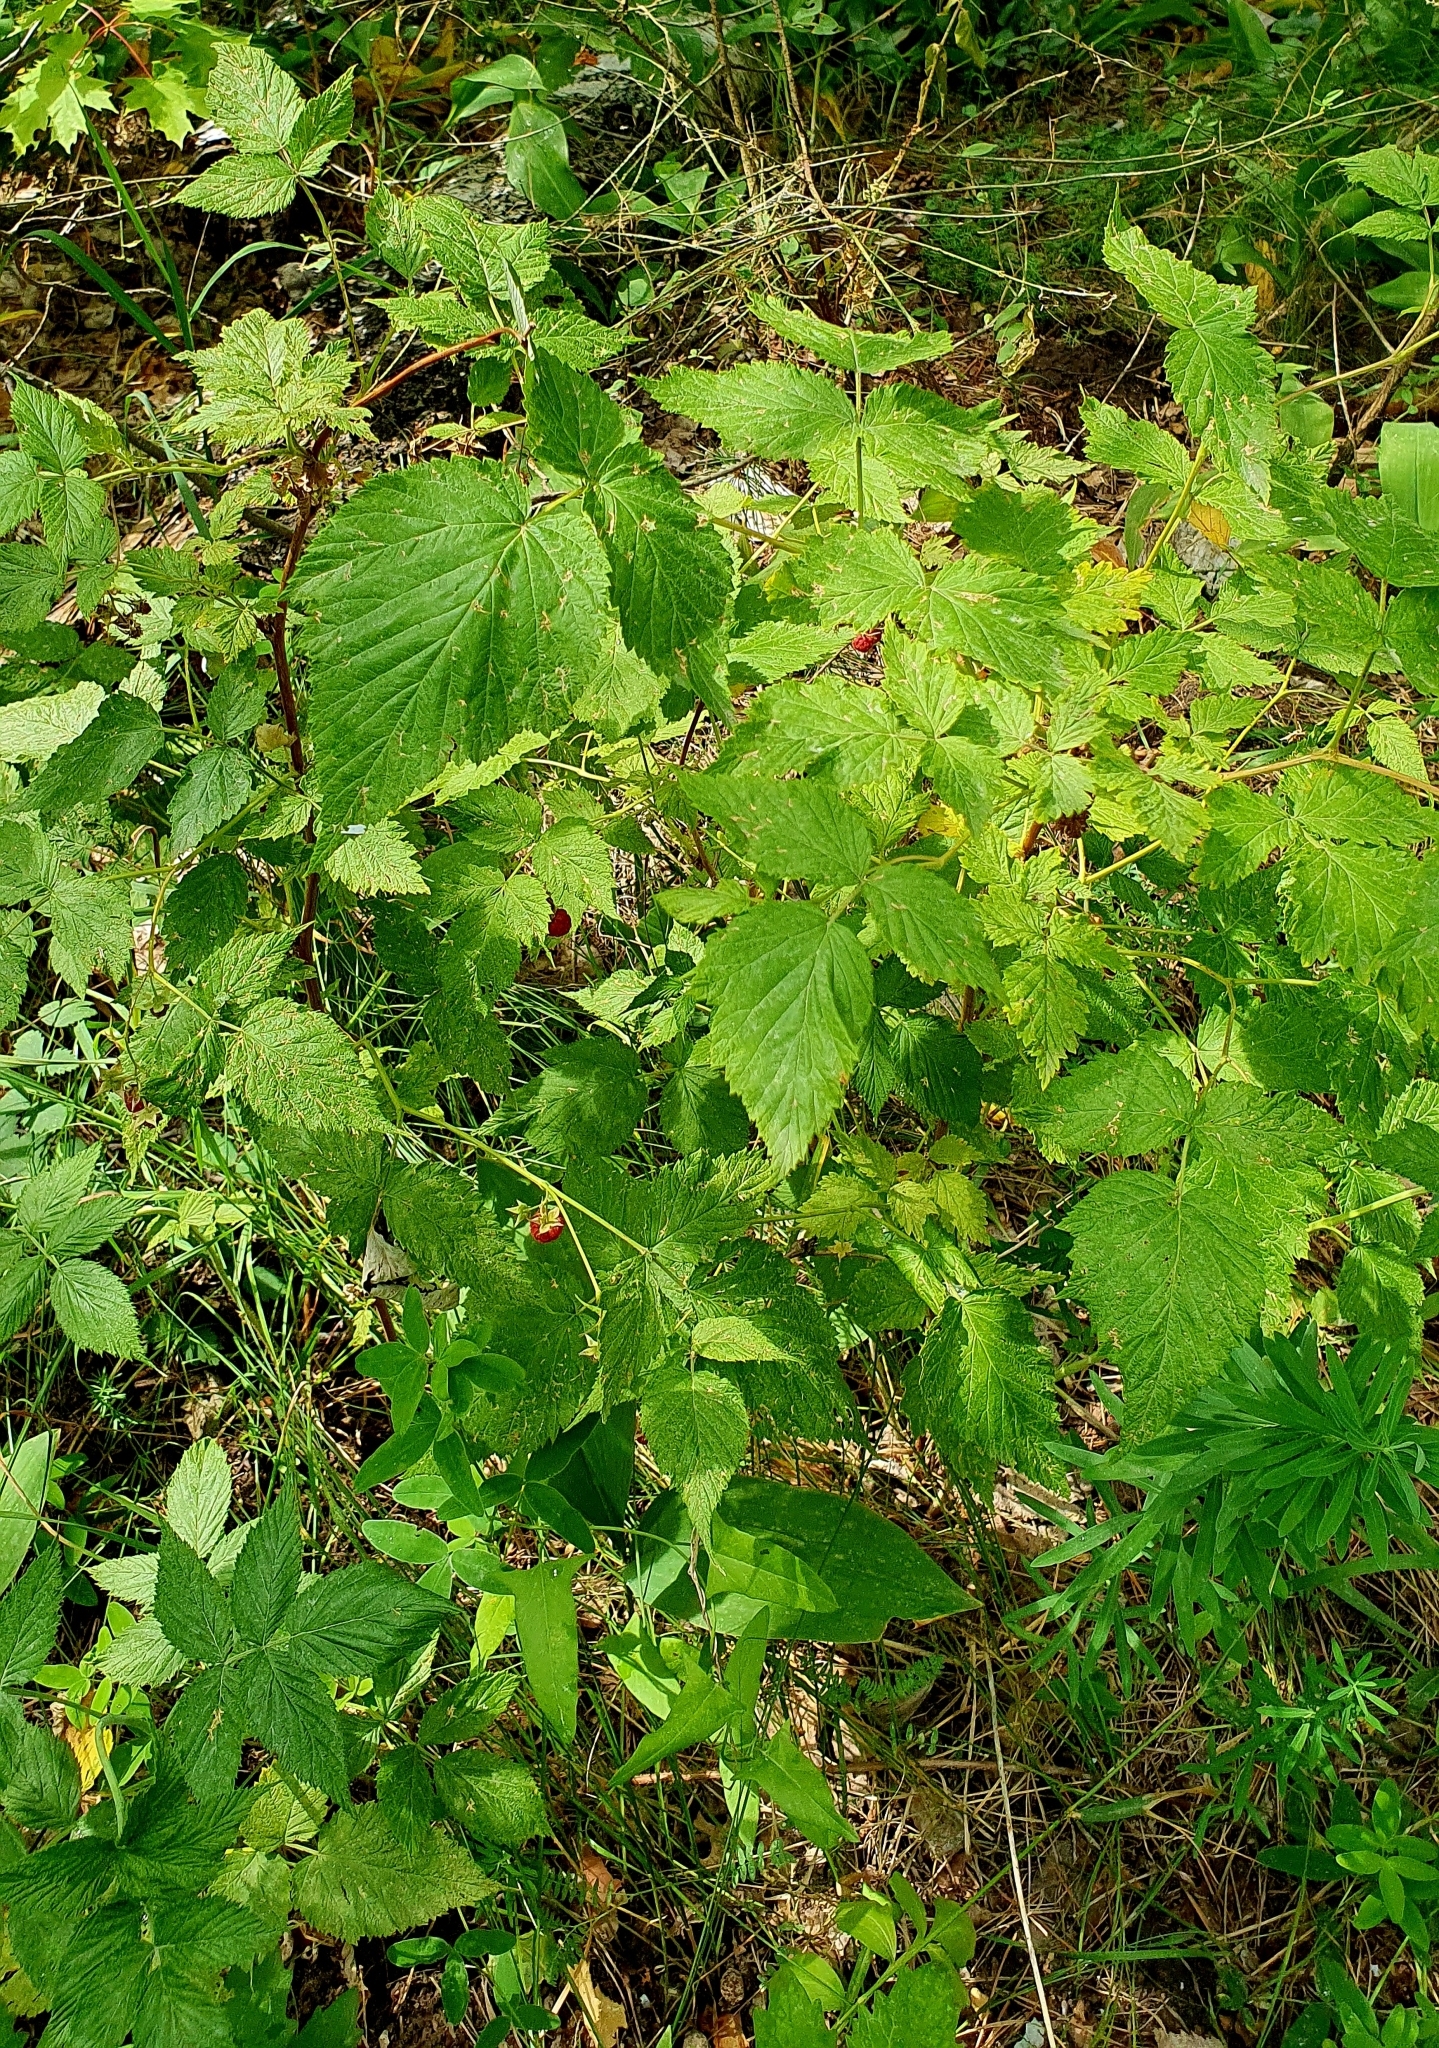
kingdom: Plantae
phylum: Tracheophyta
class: Magnoliopsida
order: Rosales
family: Rosaceae
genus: Rubus
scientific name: Rubus idaeus
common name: Raspberry
